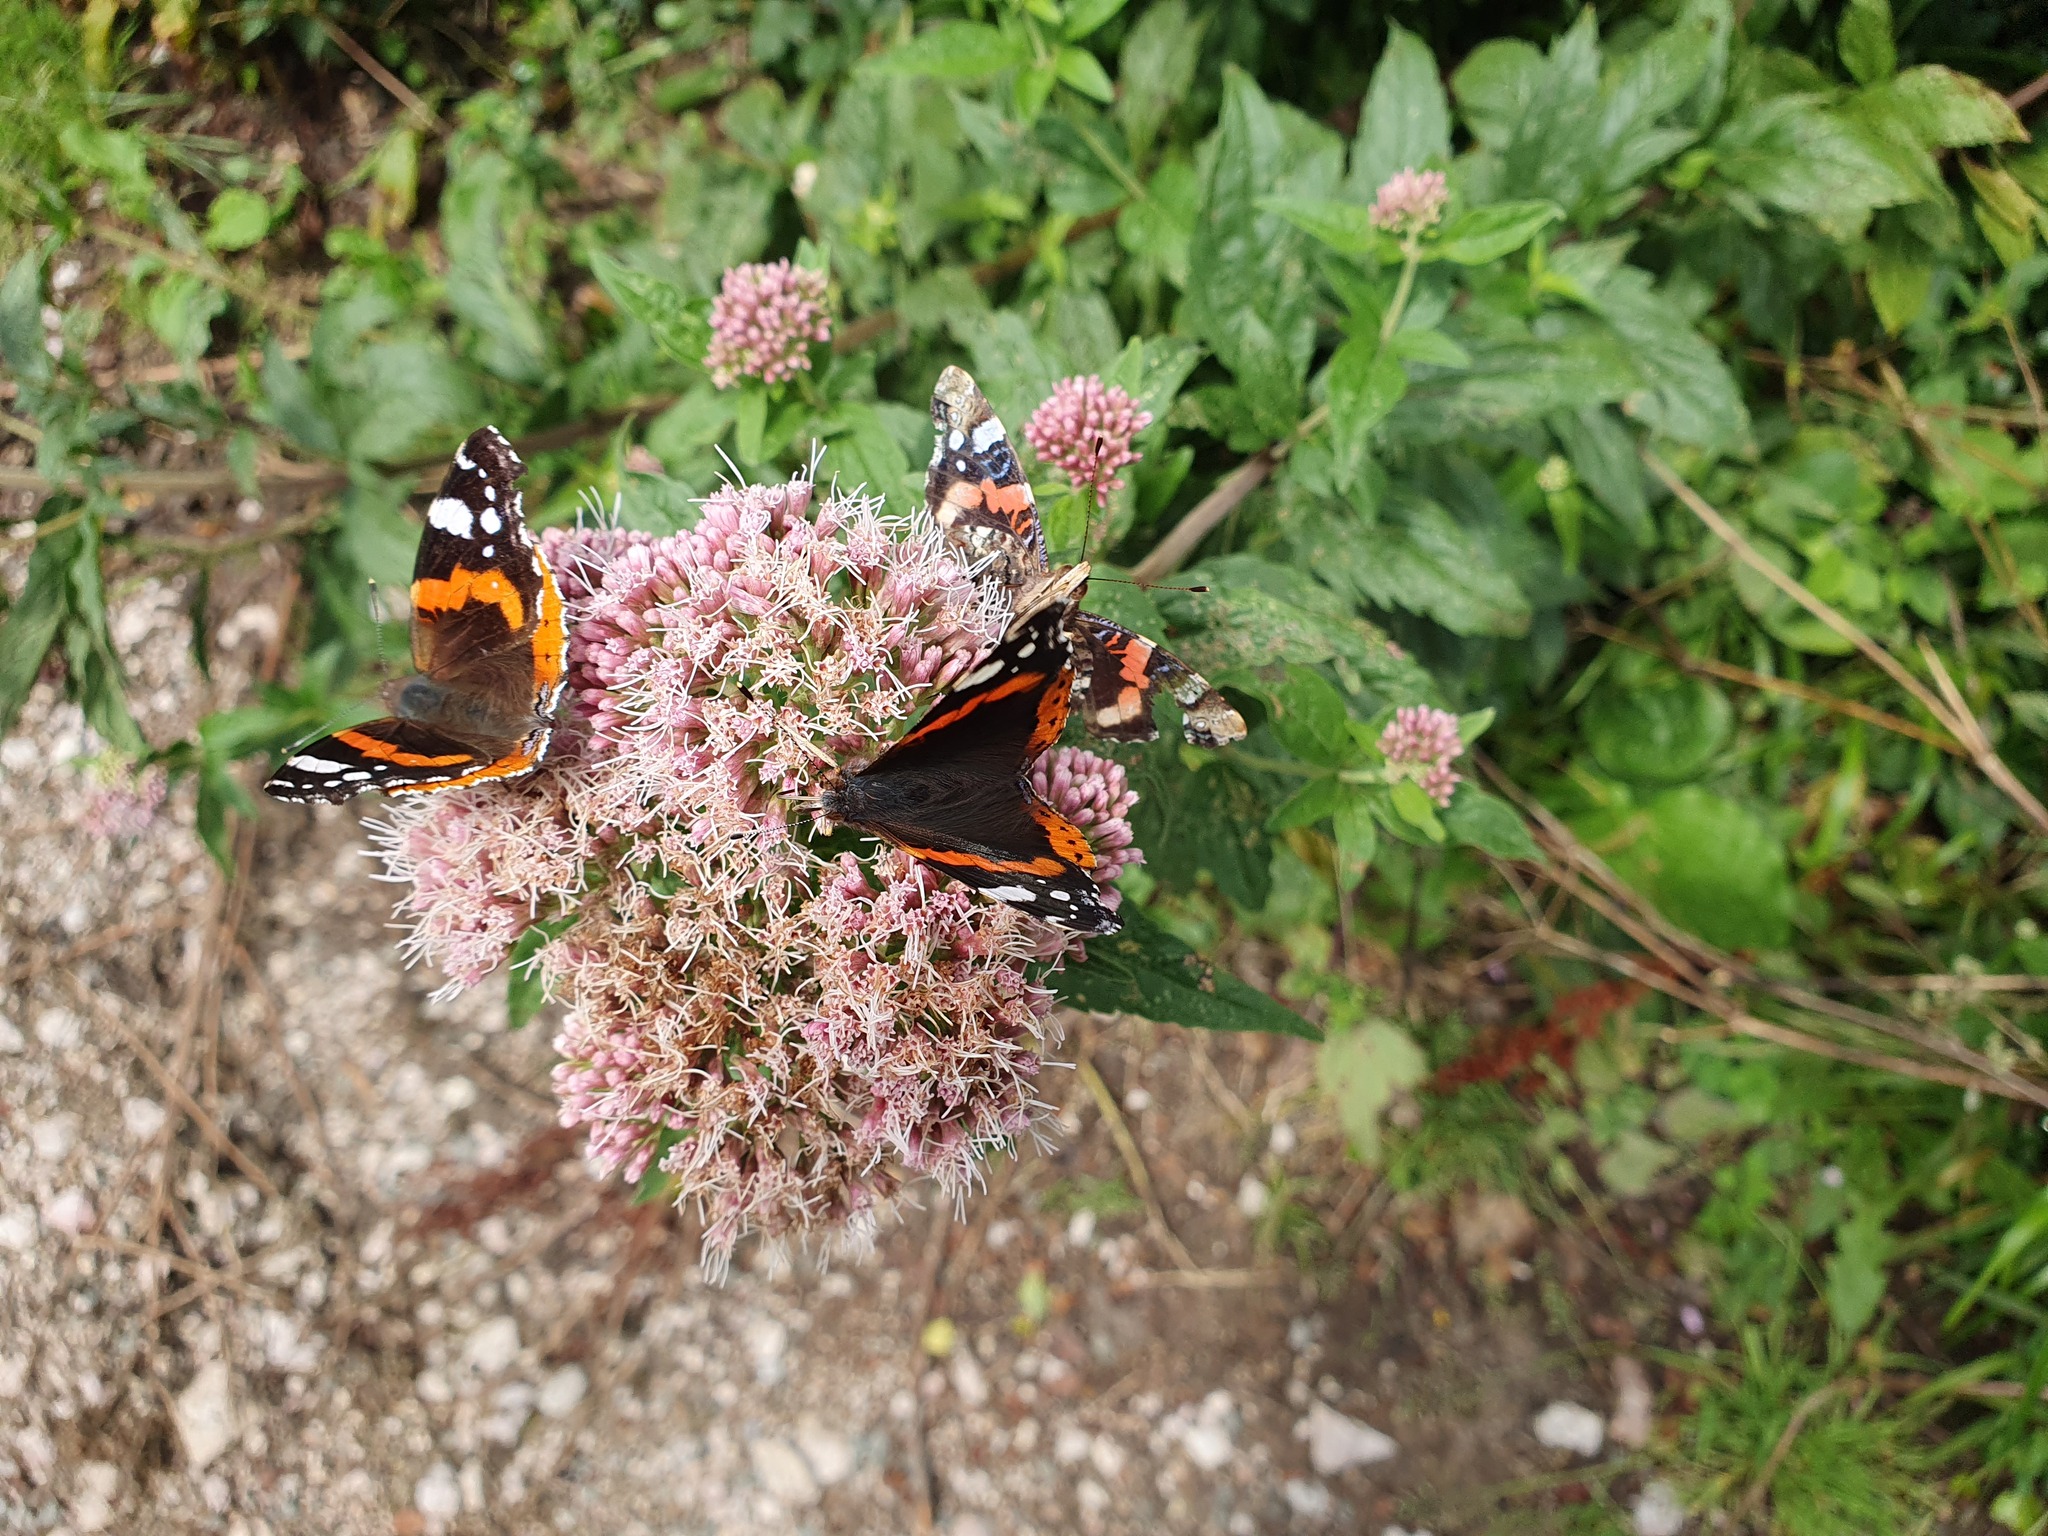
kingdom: Animalia
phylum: Arthropoda
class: Insecta
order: Lepidoptera
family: Nymphalidae
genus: Vanessa
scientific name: Vanessa atalanta
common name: Red admiral
